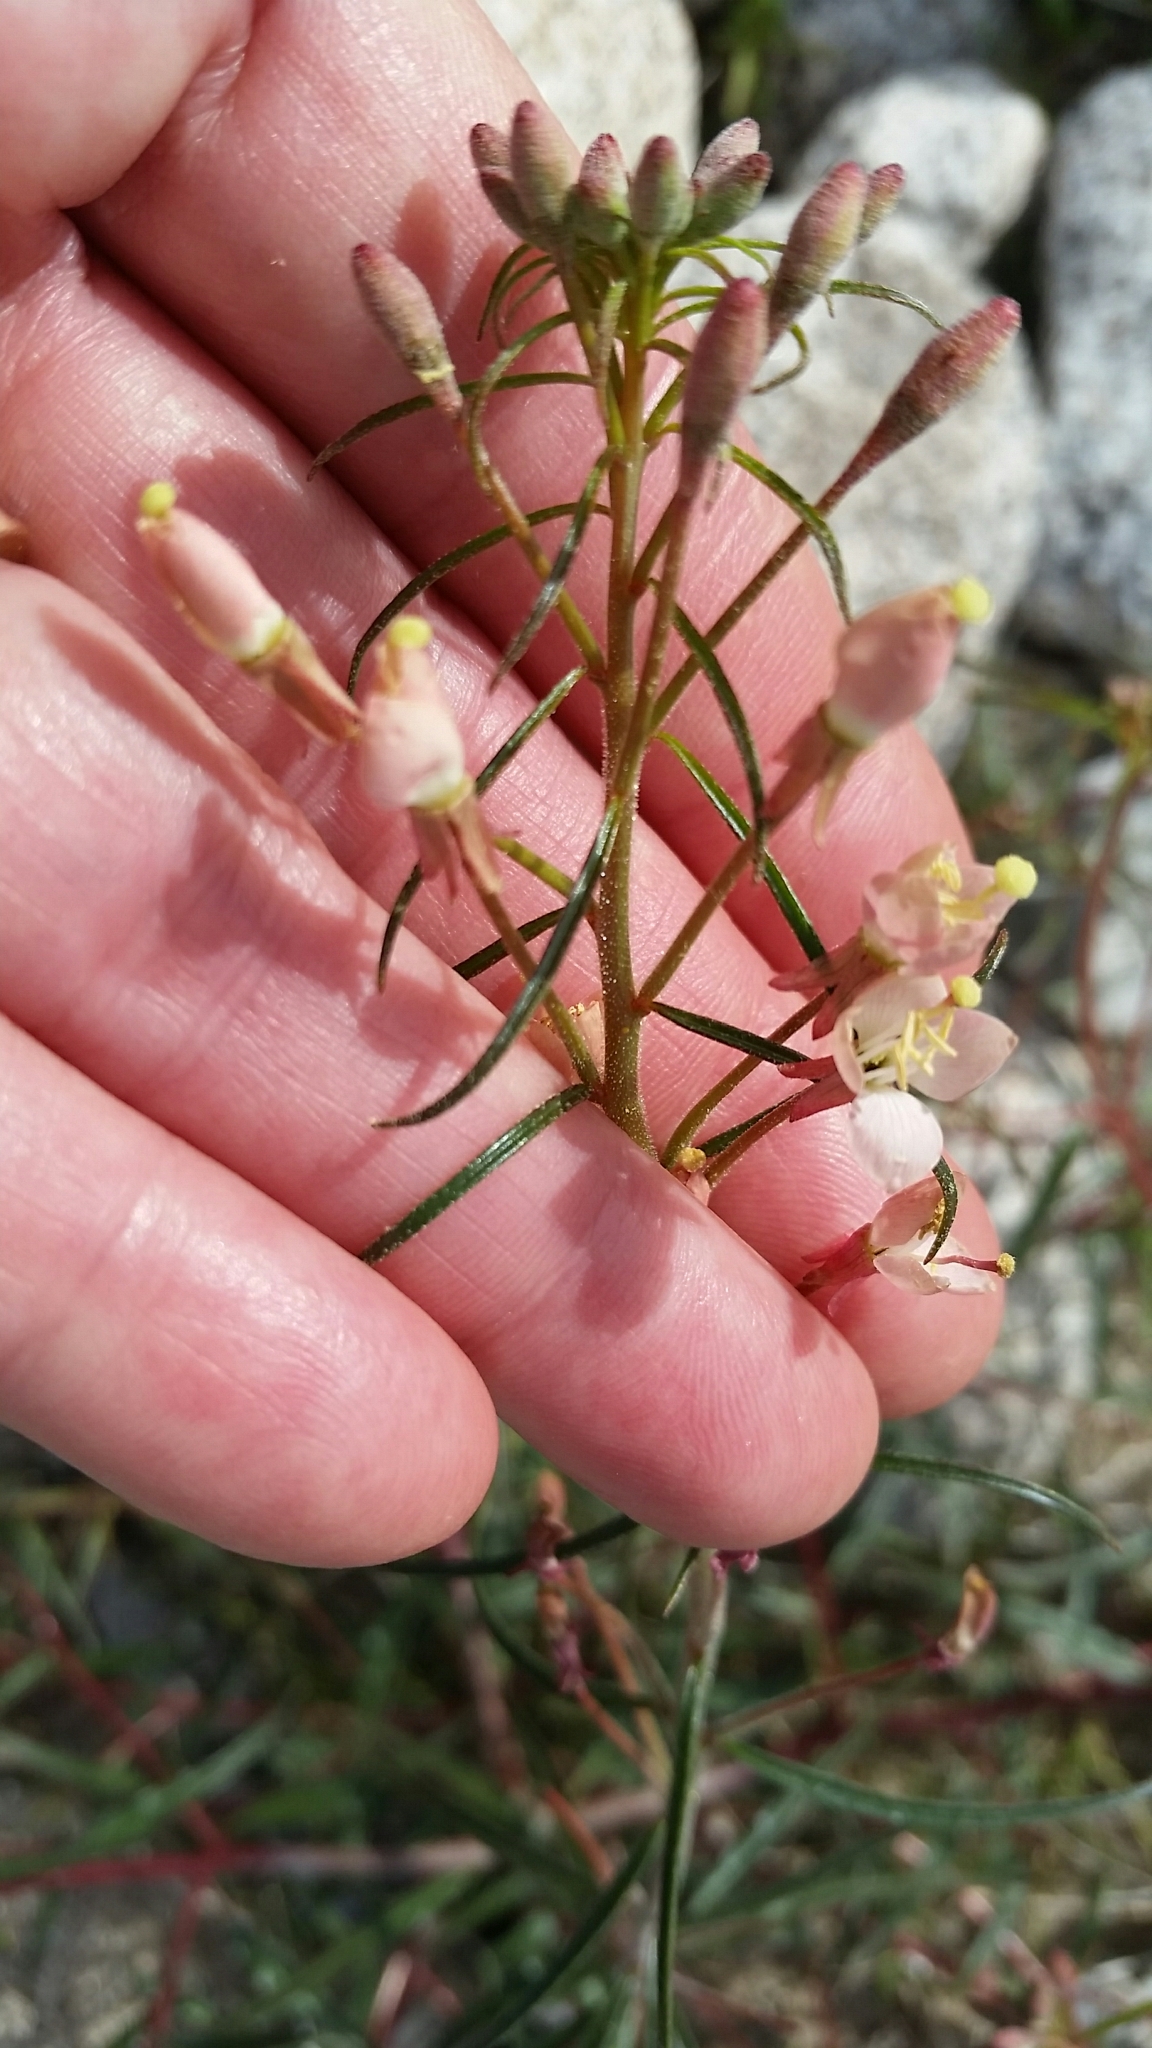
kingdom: Plantae
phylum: Tracheophyta
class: Magnoliopsida
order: Myrtales
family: Onagraceae
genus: Eremothera
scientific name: Eremothera refracta
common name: Narrowleaf suncup
